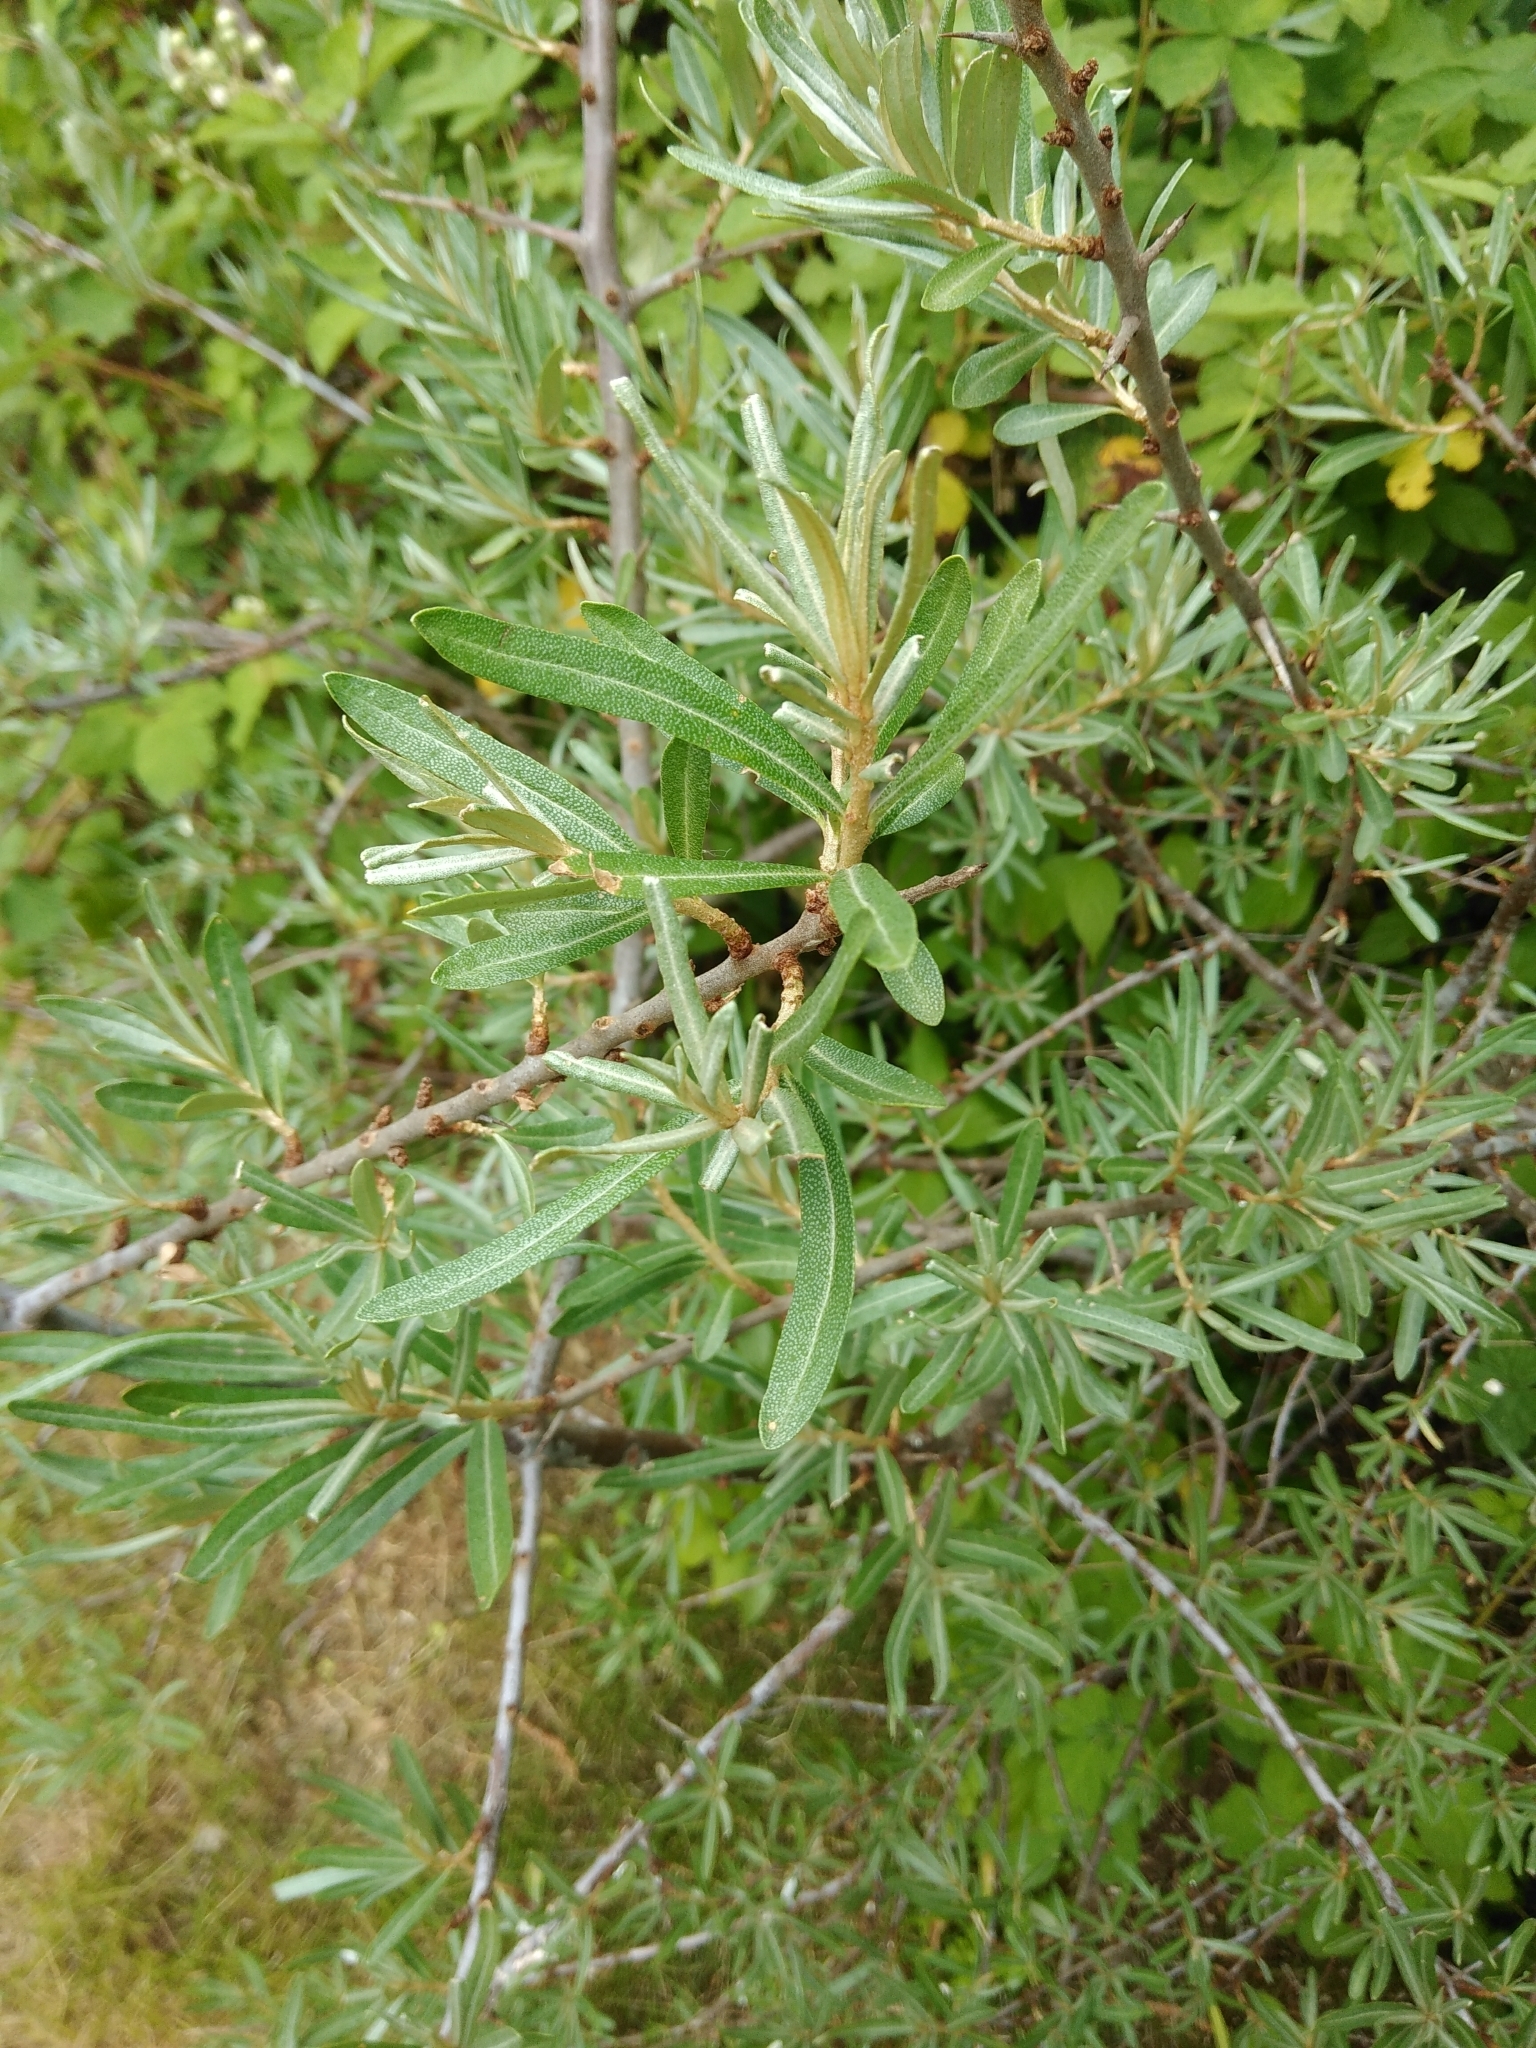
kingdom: Plantae
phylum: Tracheophyta
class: Magnoliopsida
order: Rosales
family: Elaeagnaceae
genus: Hippophae
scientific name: Hippophae rhamnoides
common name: Sea-buckthorn
